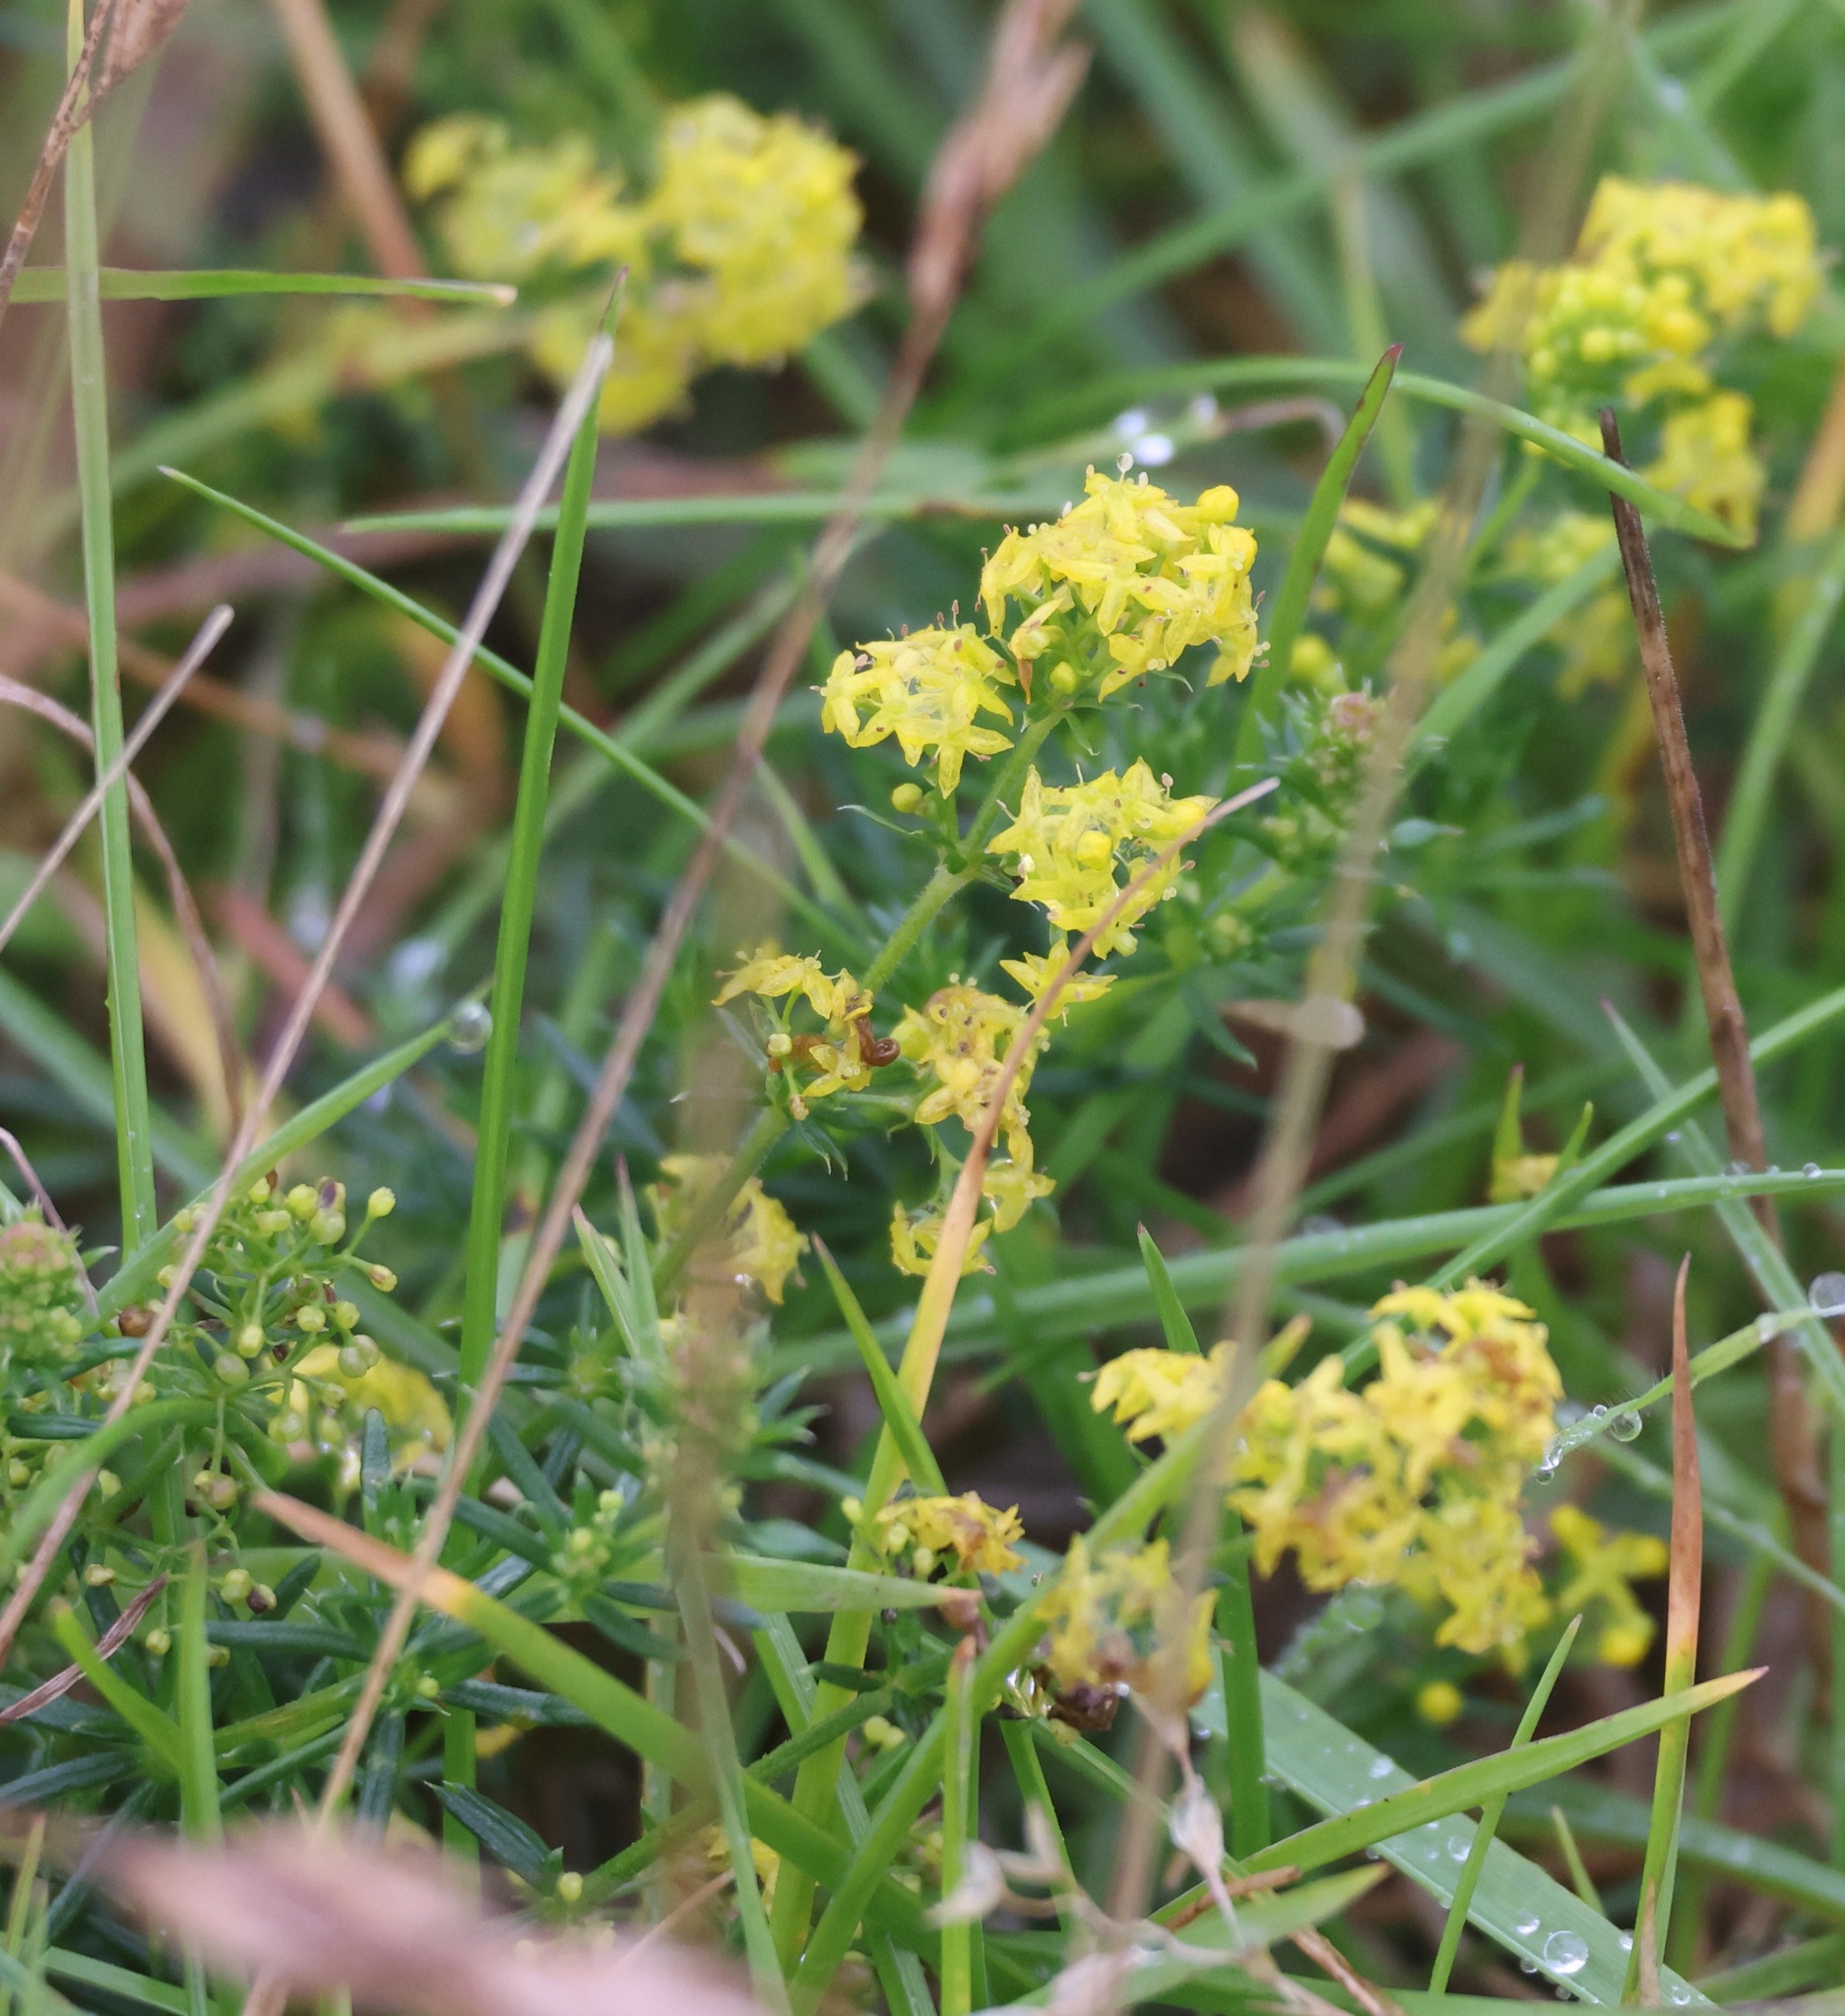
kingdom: Plantae
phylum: Tracheophyta
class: Magnoliopsida
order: Gentianales
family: Rubiaceae
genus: Galium
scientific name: Galium verum
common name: Lady's bedstraw
